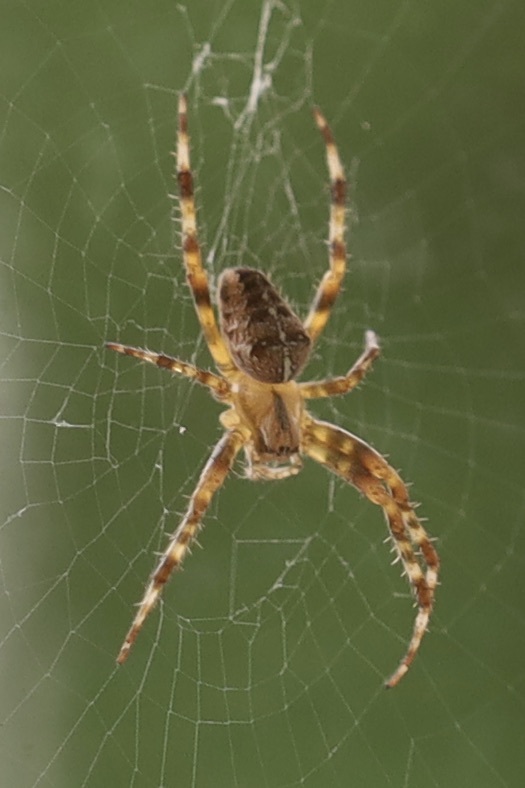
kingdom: Animalia
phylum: Arthropoda
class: Arachnida
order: Araneae
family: Araneidae
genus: Araneus
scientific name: Araneus diadematus
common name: Cross orbweaver
